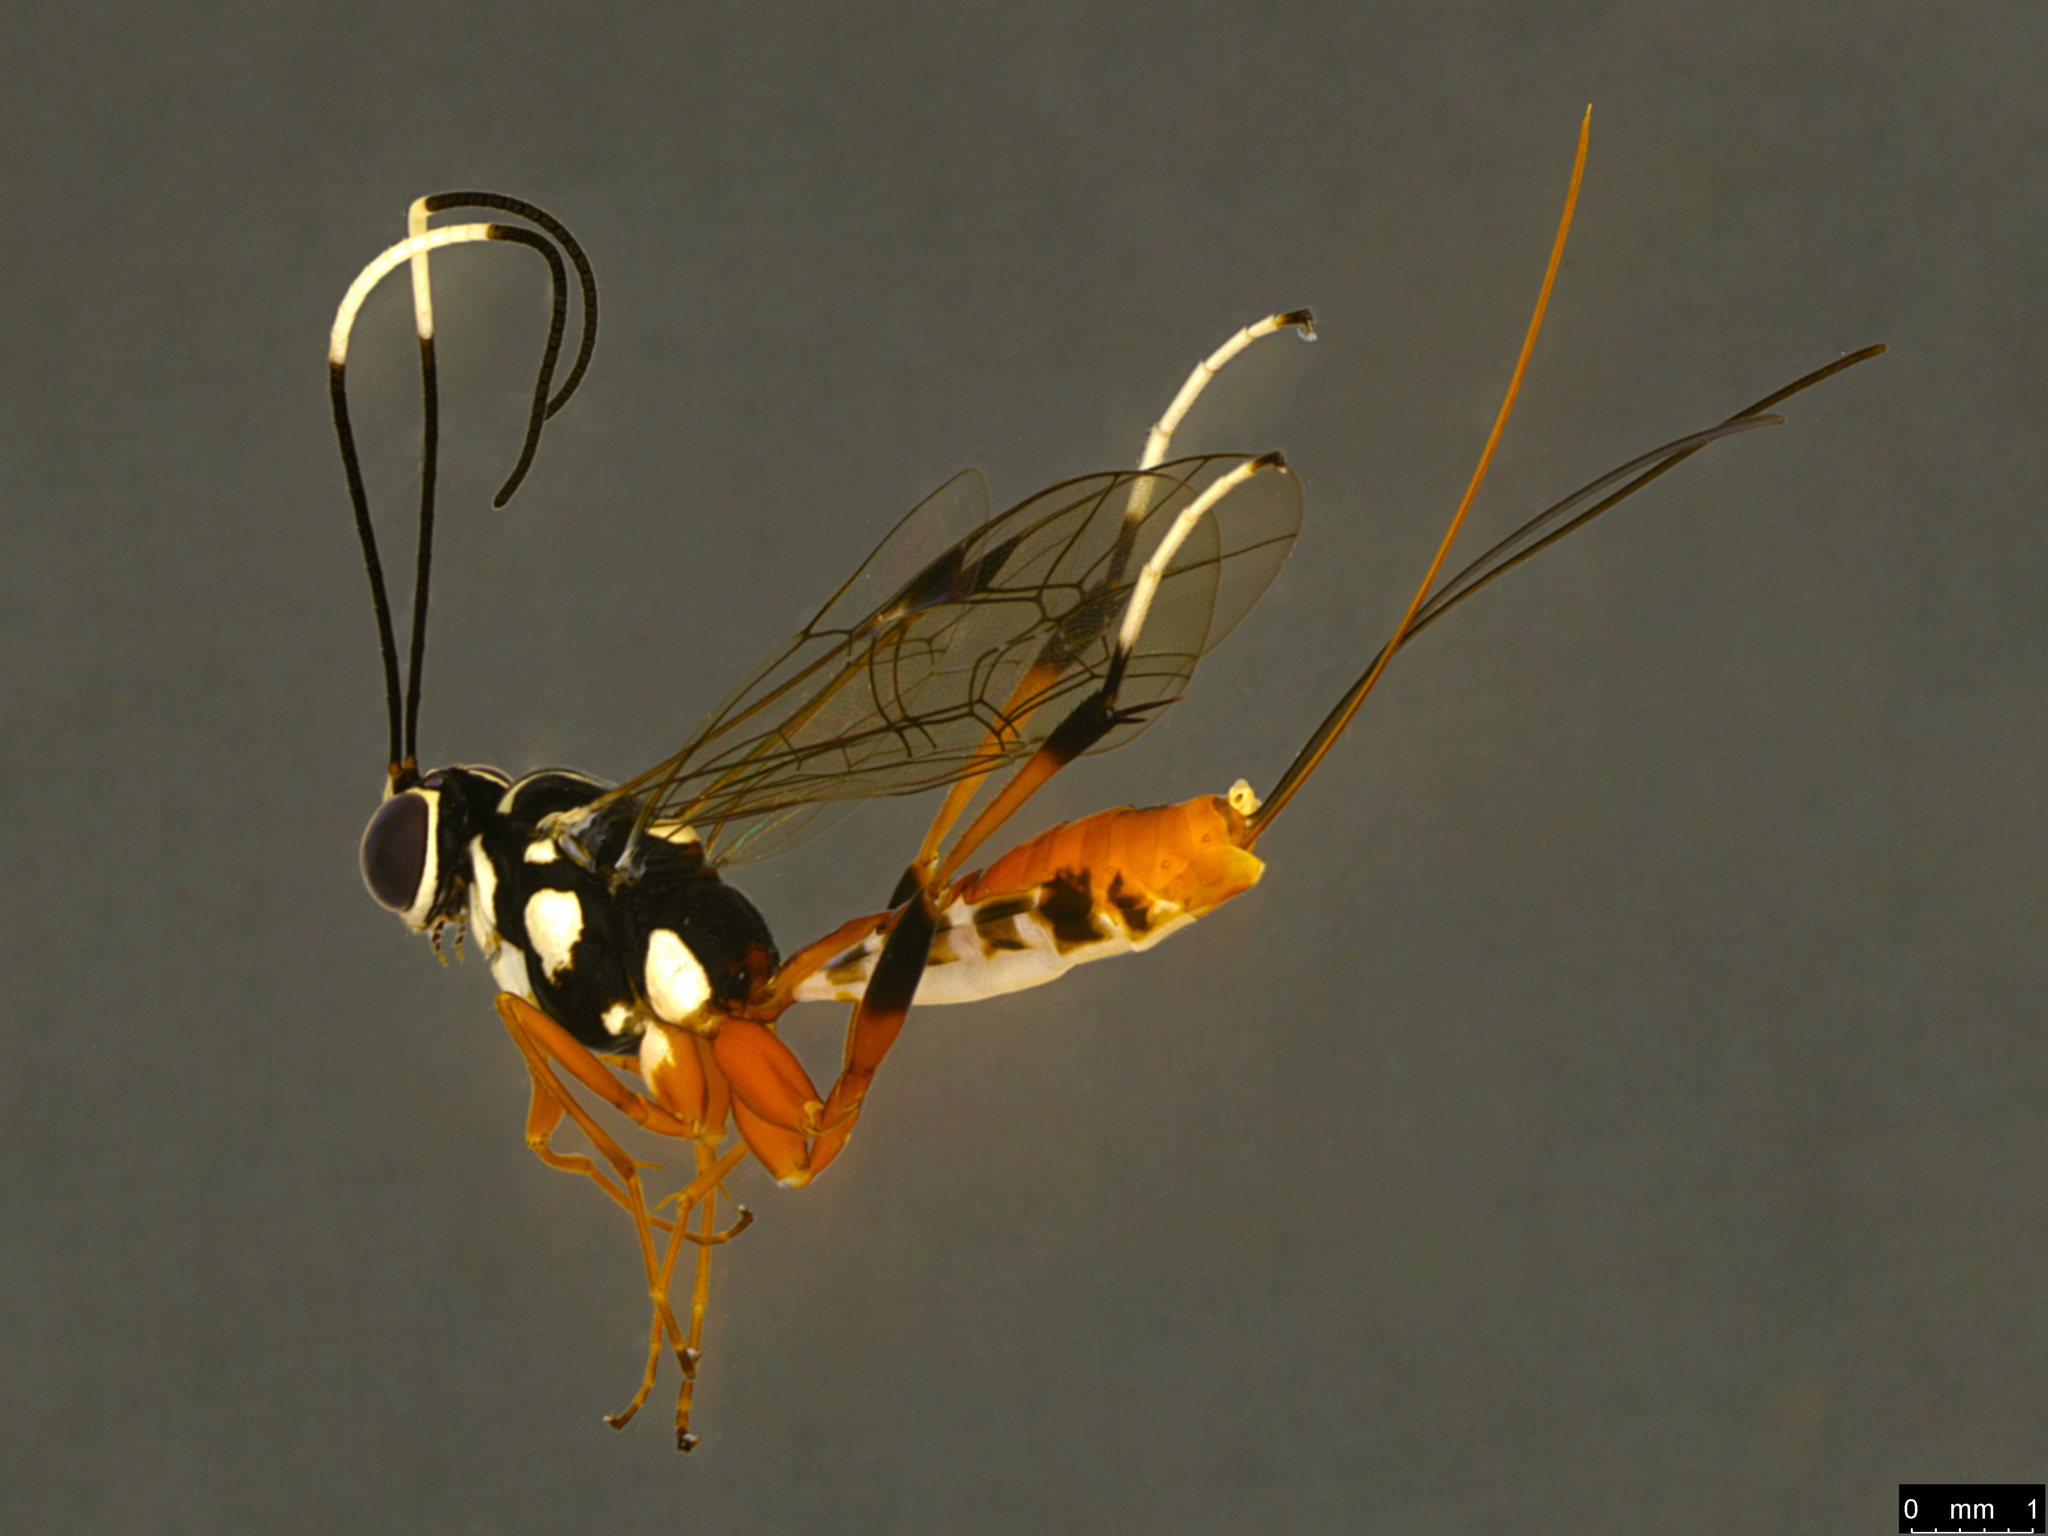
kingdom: Animalia
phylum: Arthropoda
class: Insecta
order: Hymenoptera
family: Ichneumonidae
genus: Lissonota
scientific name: Lissonota macqueeni
